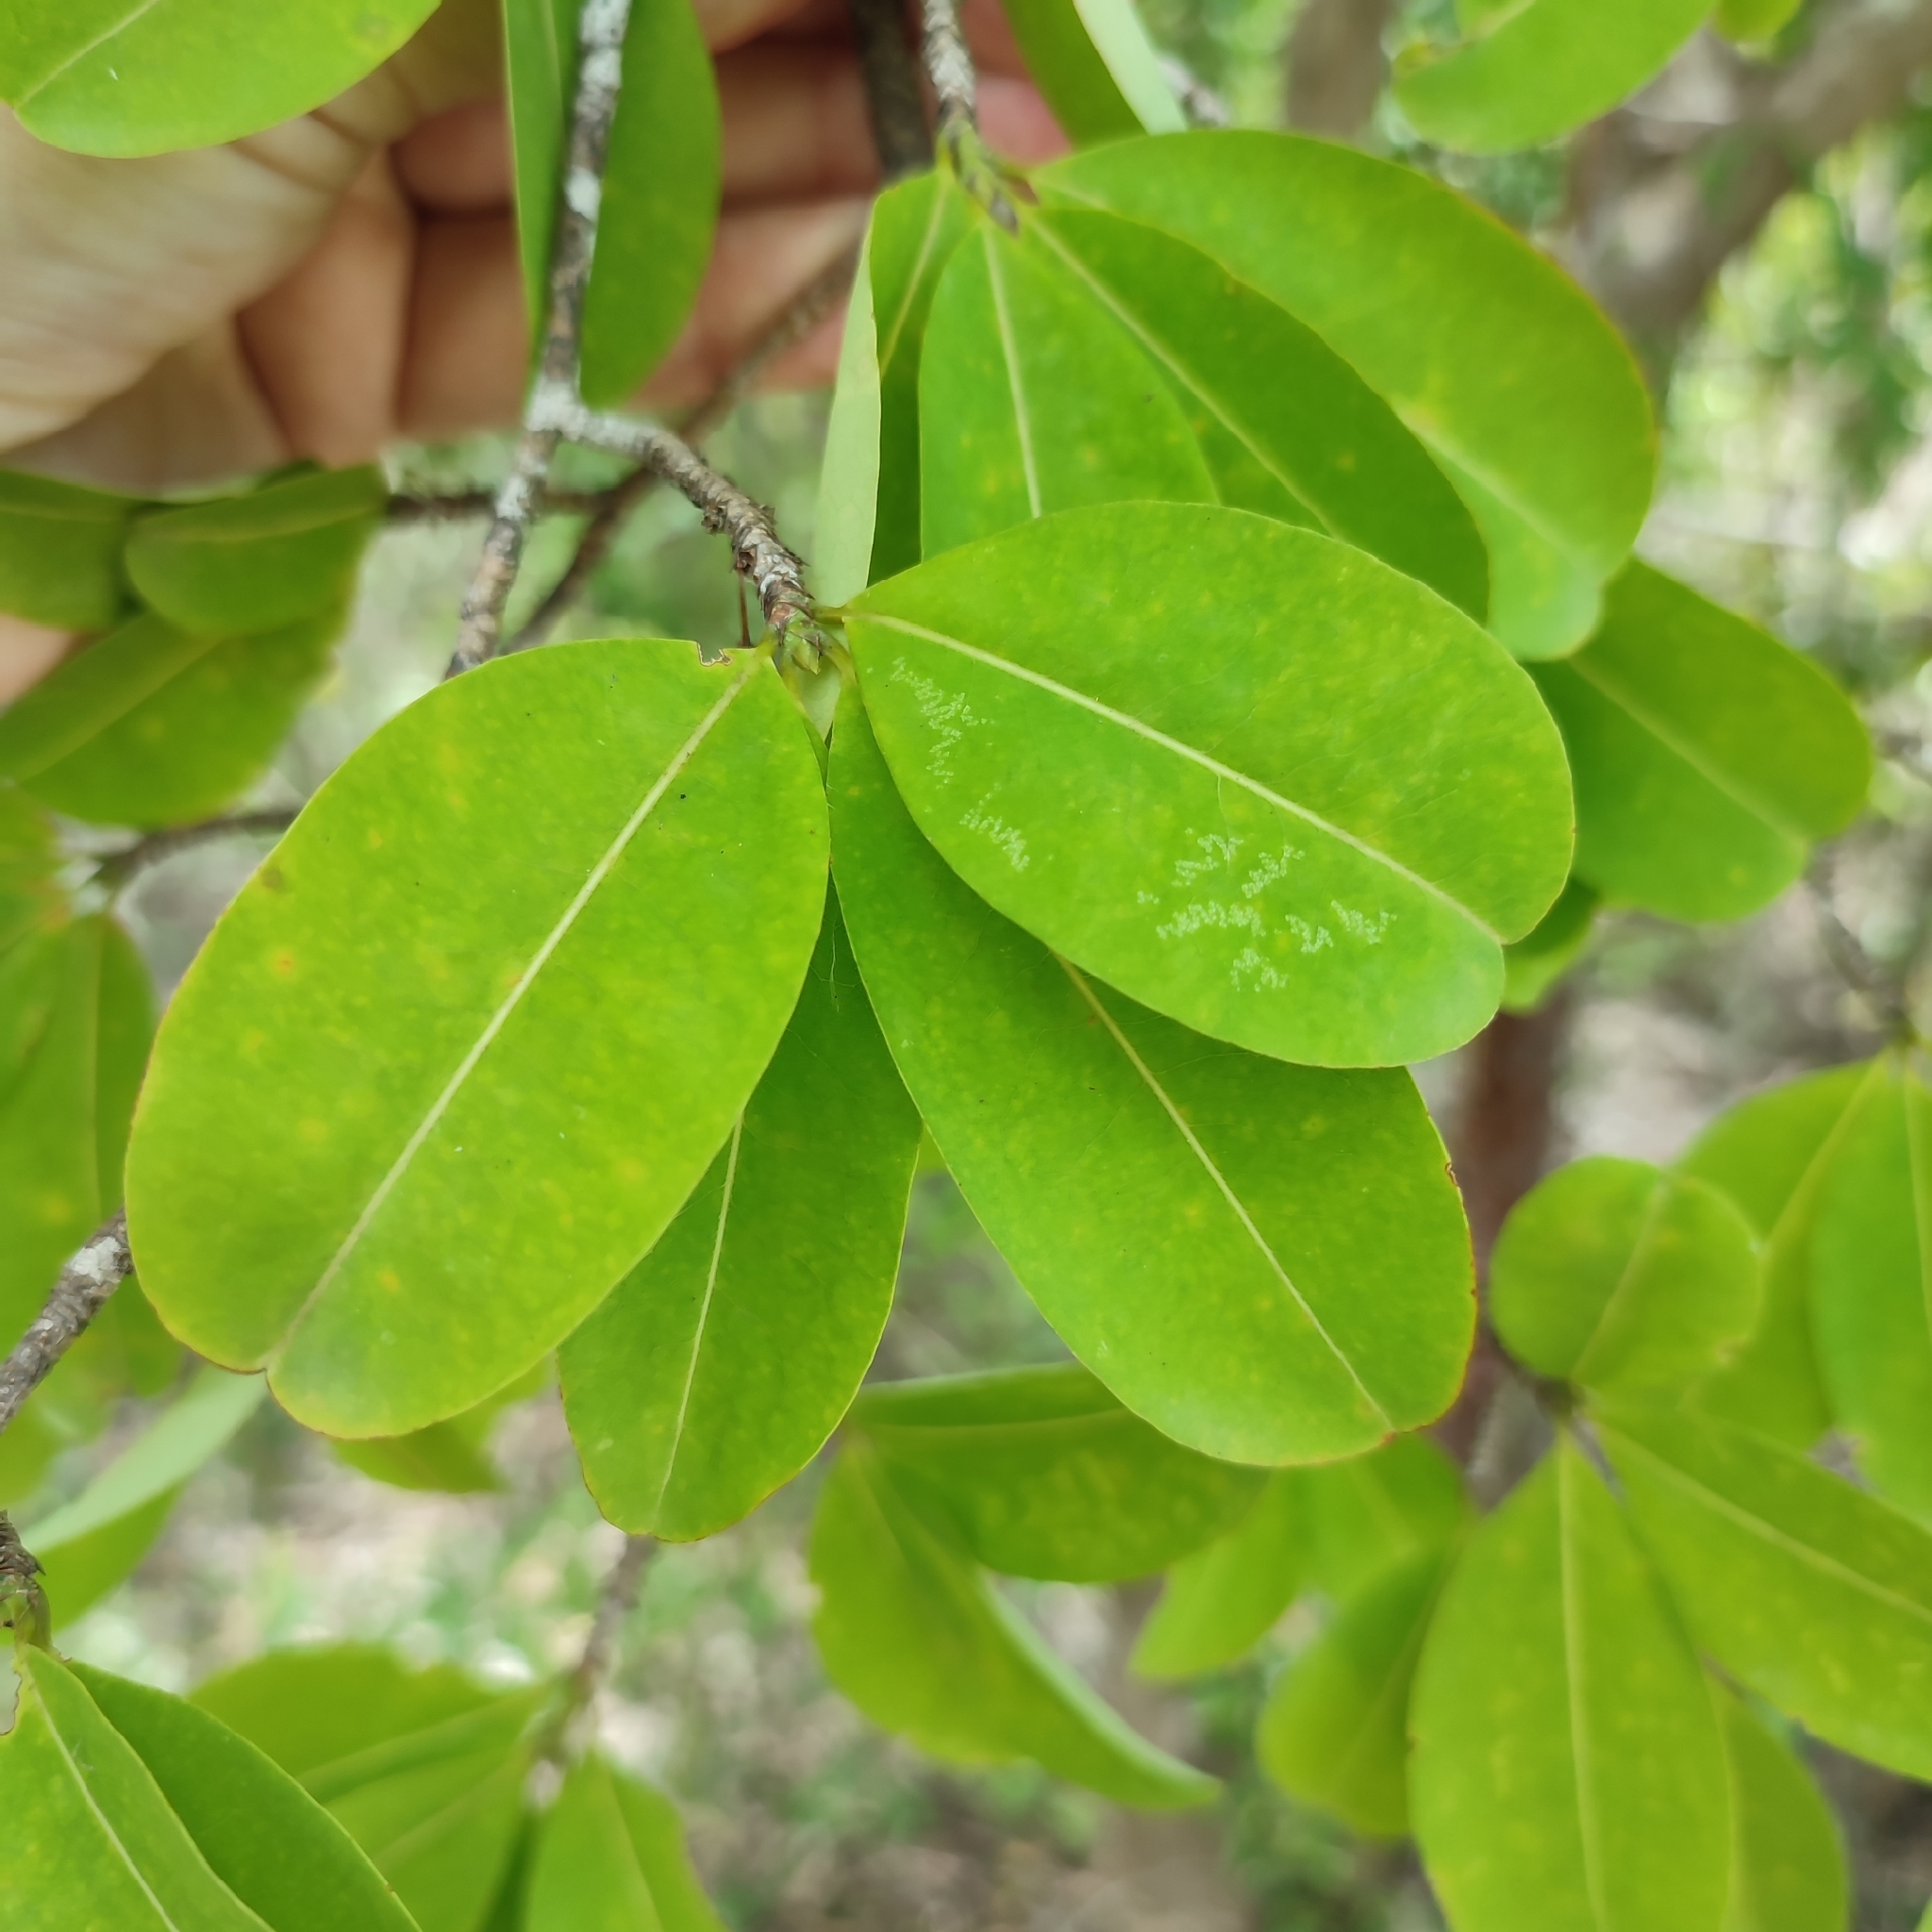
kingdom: Plantae
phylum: Tracheophyta
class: Magnoliopsida
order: Malpighiales
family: Erythroxylaceae
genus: Erythroxylum
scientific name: Erythroxylum areolatum
